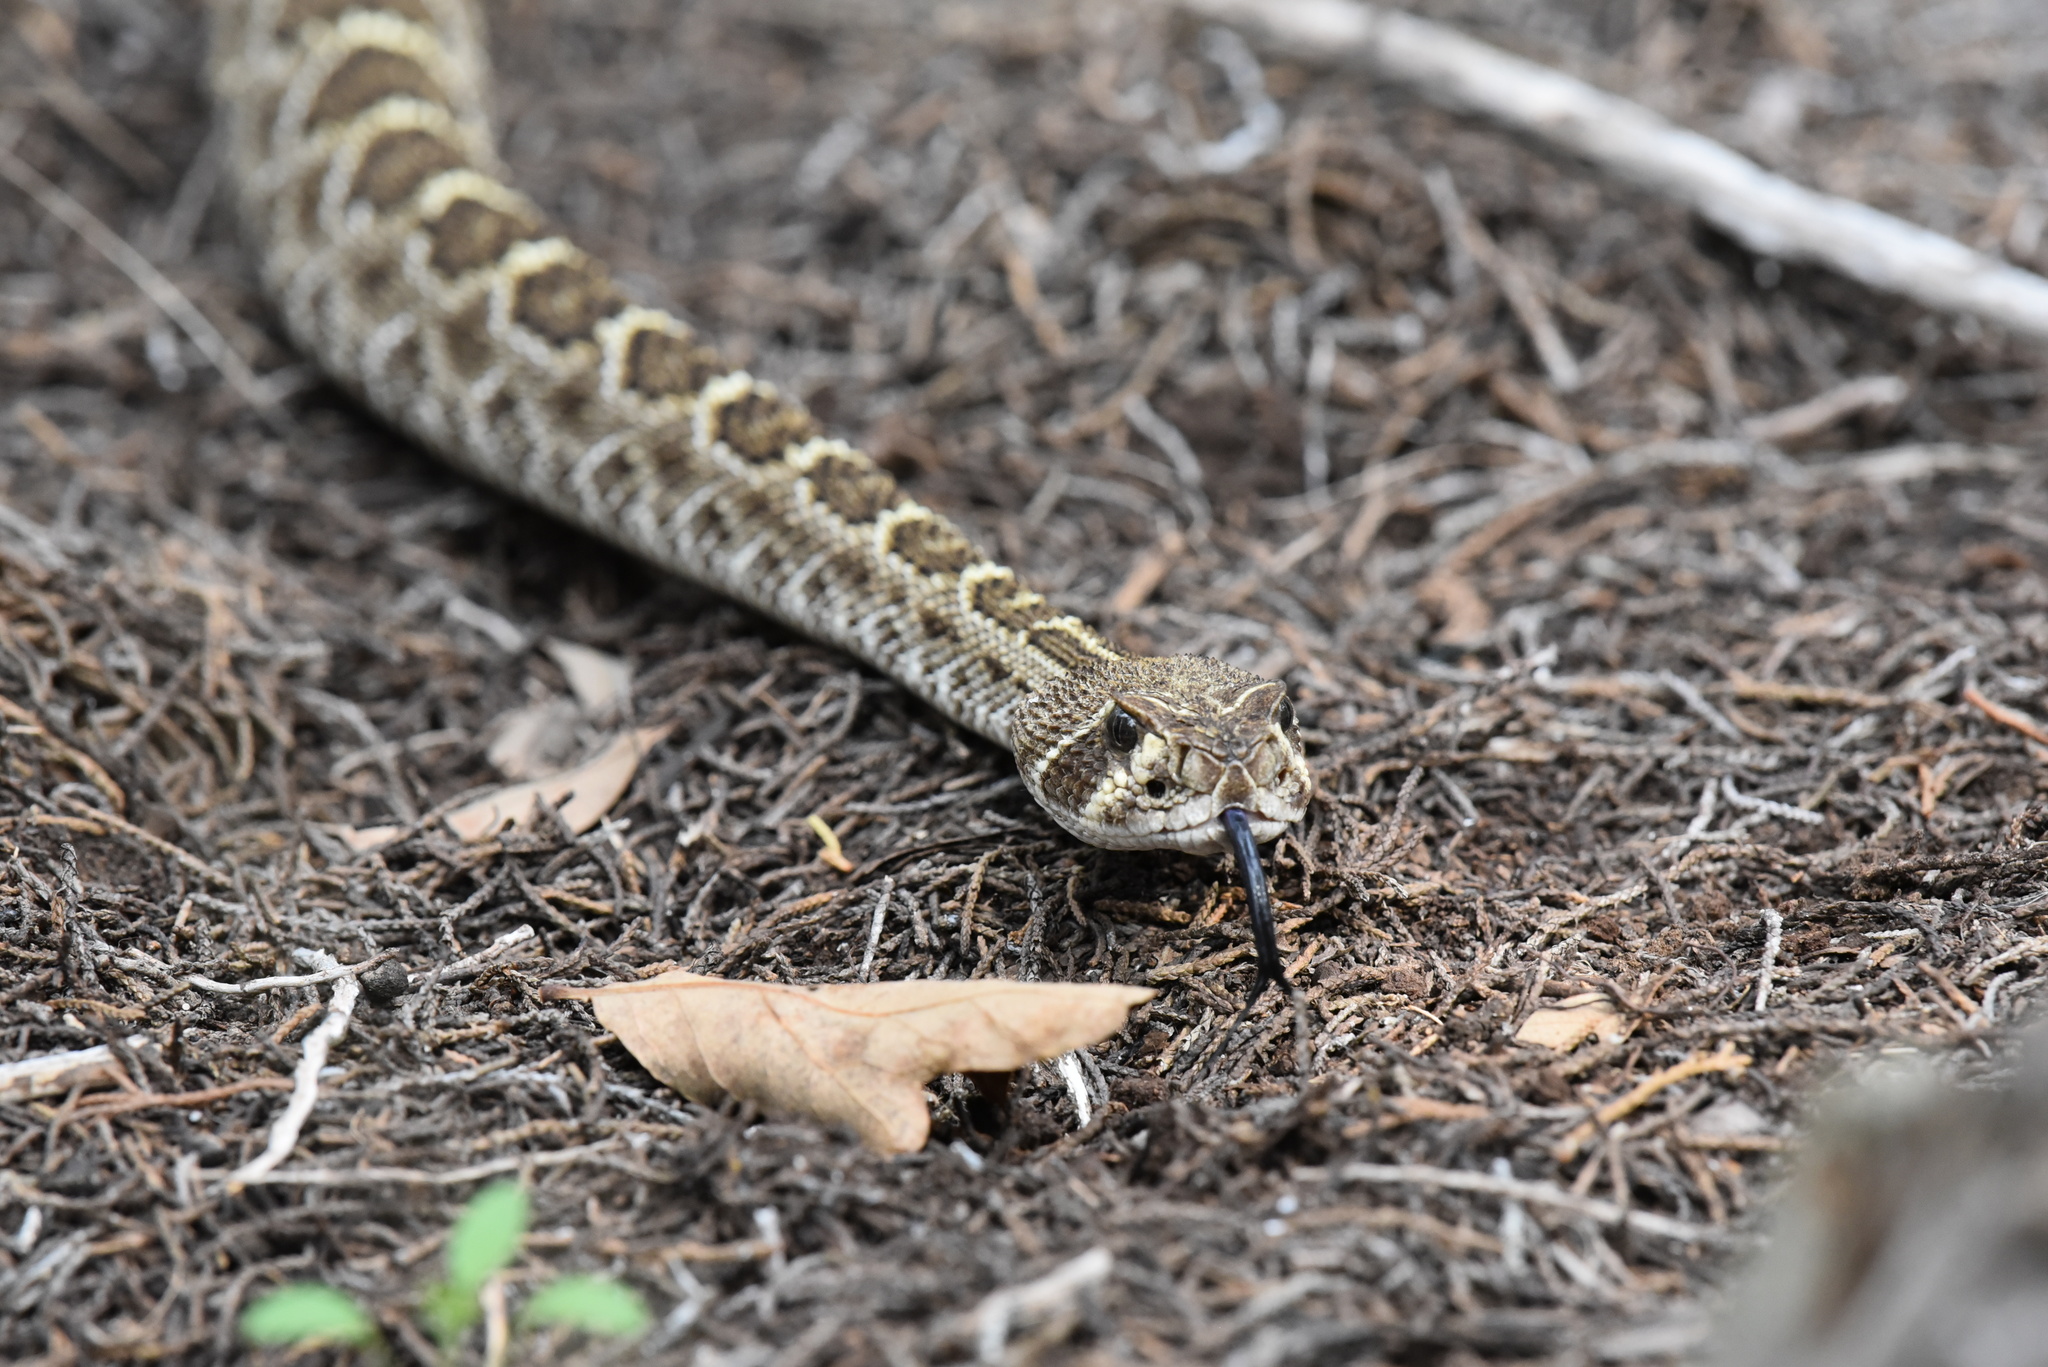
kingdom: Animalia
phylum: Chordata
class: Squamata
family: Viperidae
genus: Crotalus
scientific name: Crotalus atrox
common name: Western diamond-backed rattlesnake
